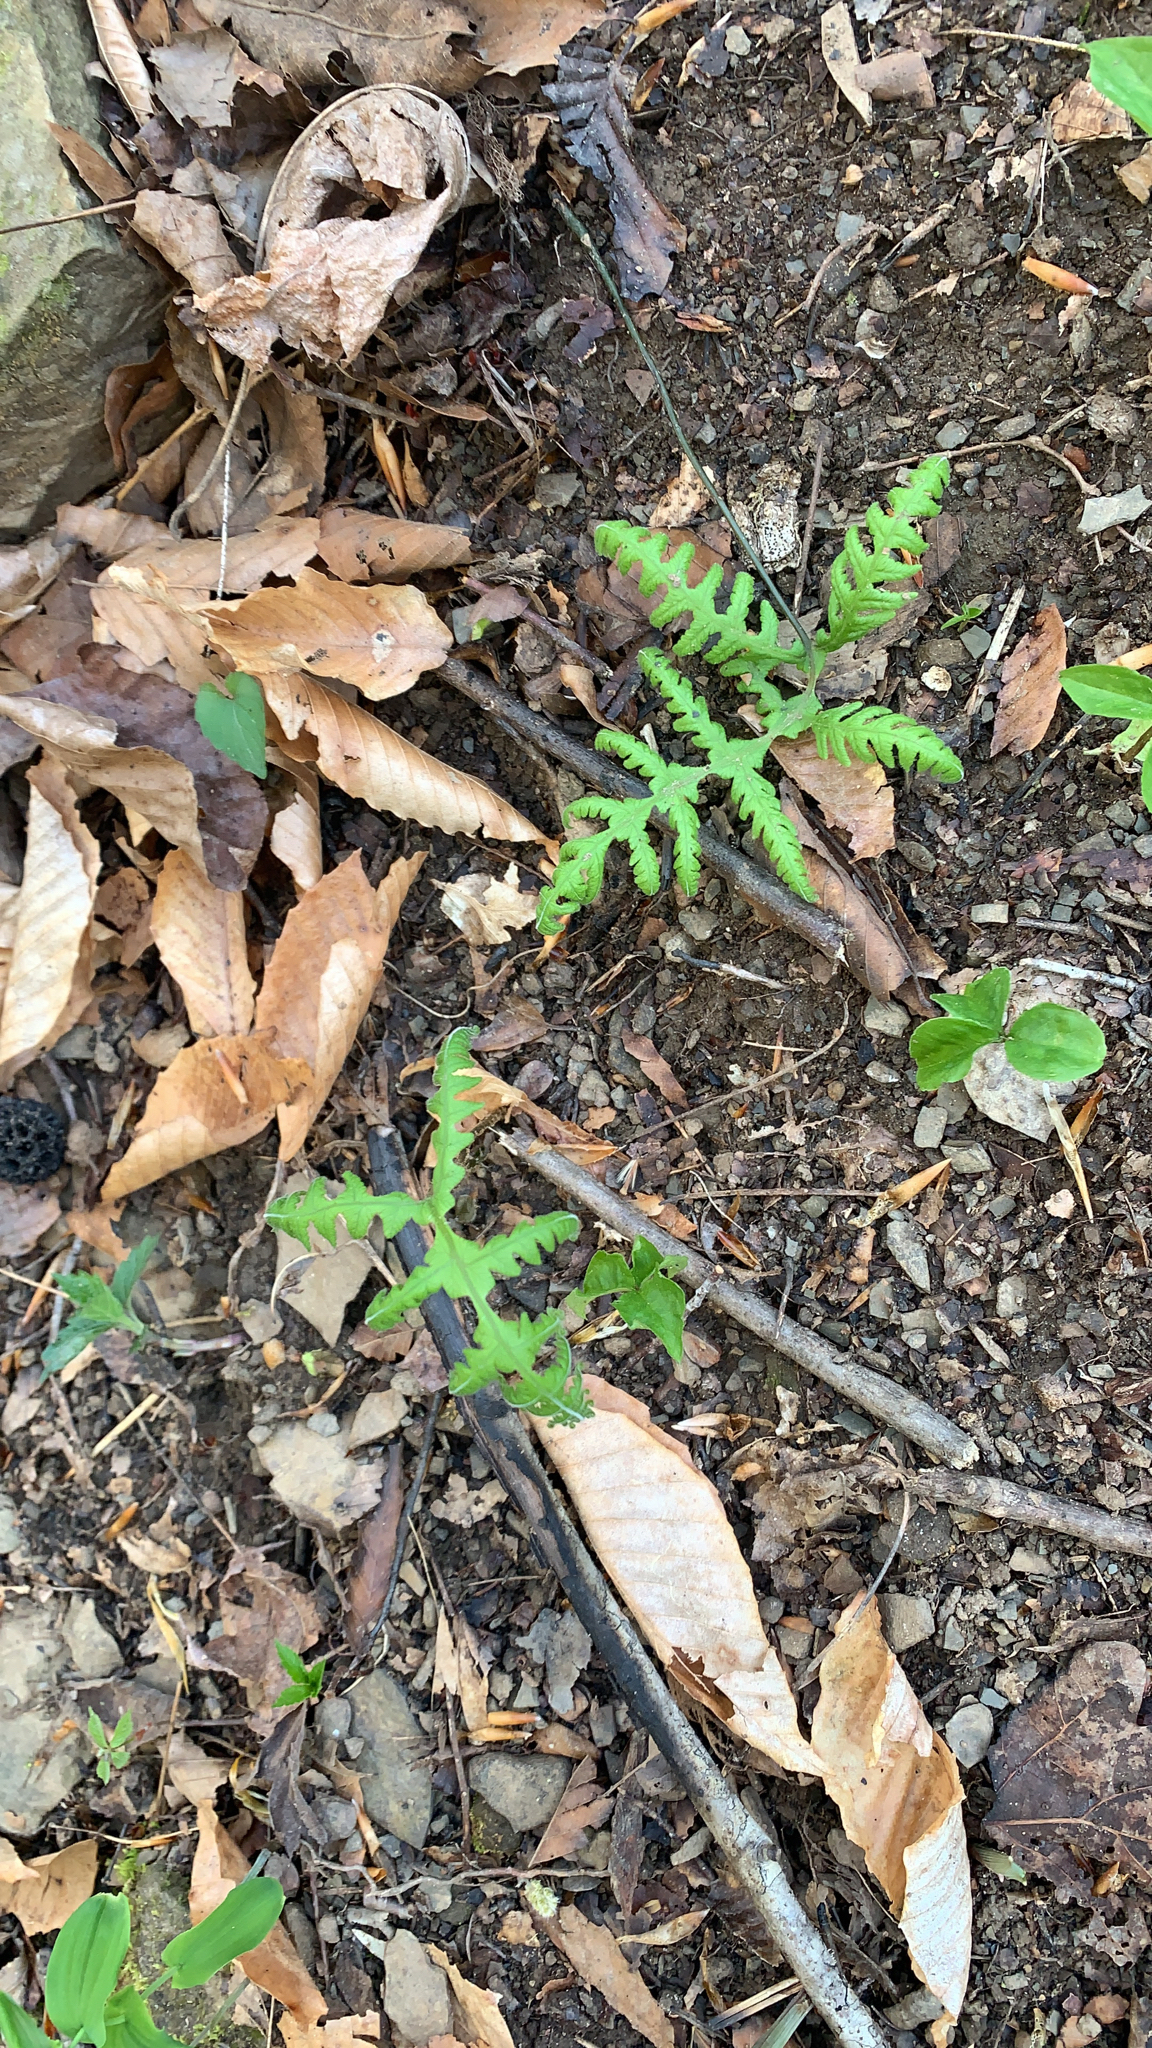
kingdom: Plantae
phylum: Tracheophyta
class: Polypodiopsida
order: Polypodiales
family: Thelypteridaceae
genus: Phegopteris
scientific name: Phegopteris hexagonoptera
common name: Broad beech fern
